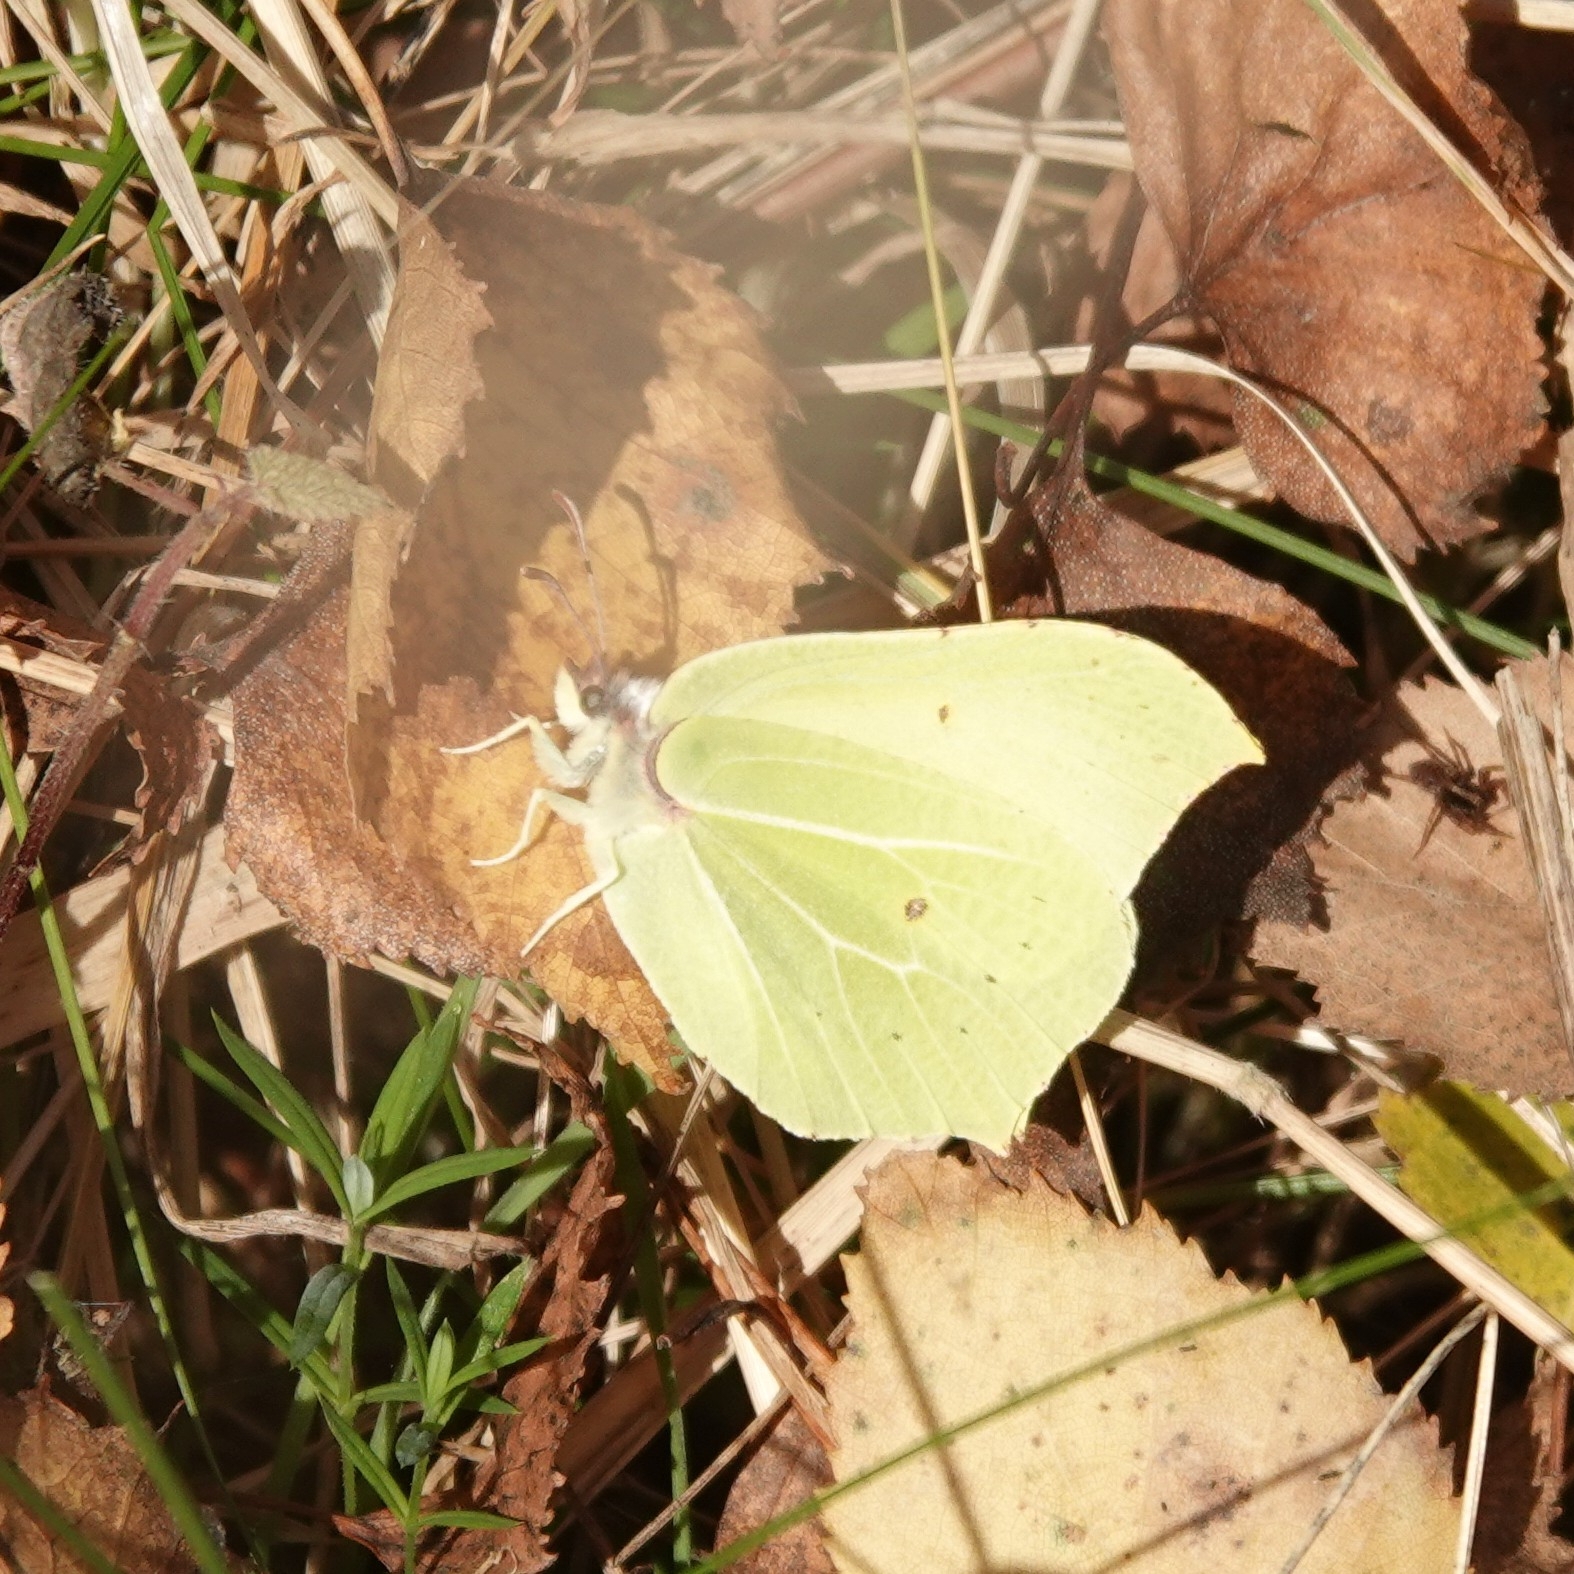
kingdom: Animalia
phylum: Arthropoda
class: Insecta
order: Lepidoptera
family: Pieridae
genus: Gonepteryx
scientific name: Gonepteryx rhamni
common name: Brimstone
